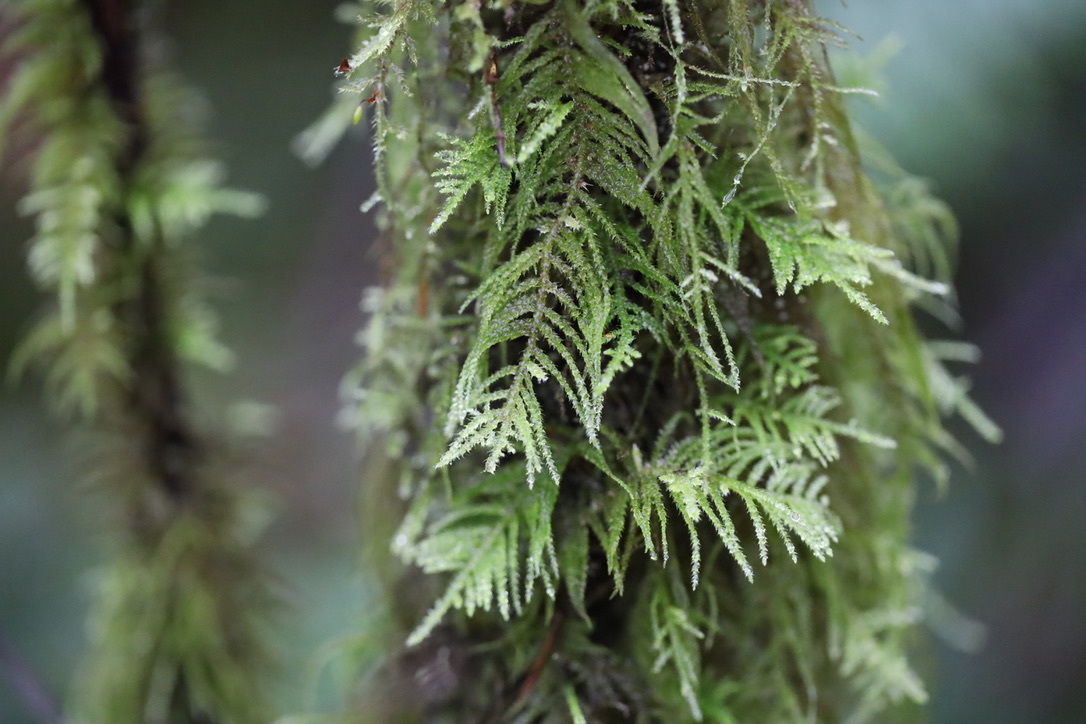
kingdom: Plantae
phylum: Bryophyta
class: Bryopsida
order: Hypnales
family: Brachytheciaceae
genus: Kindbergia
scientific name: Kindbergia oregana
